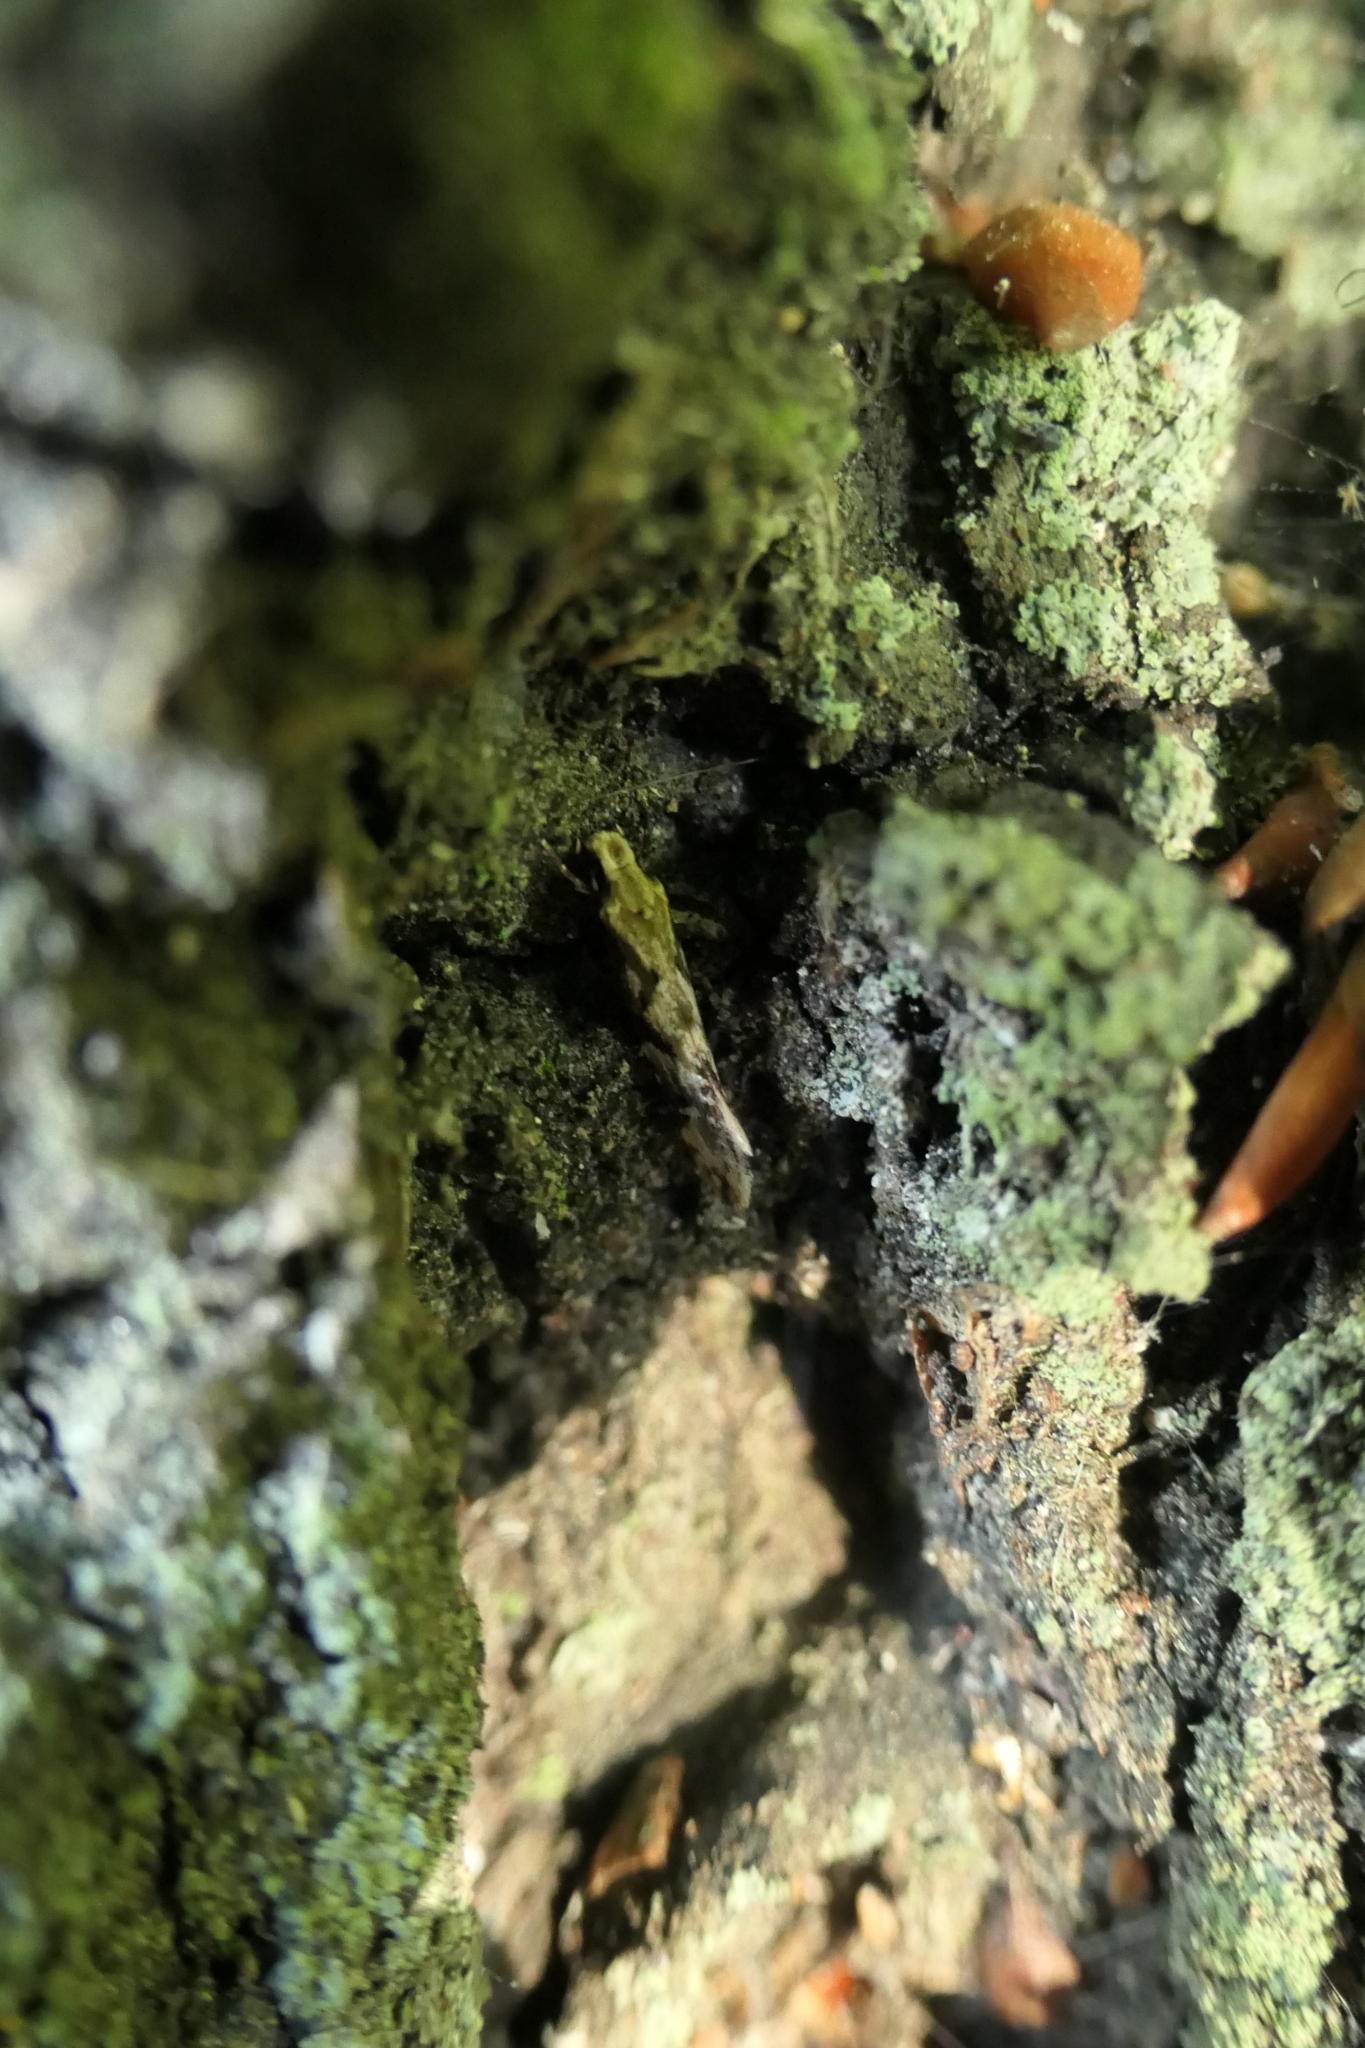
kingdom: Animalia
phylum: Arthropoda
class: Insecta
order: Lepidoptera
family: Tineidae
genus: Crypsitricha
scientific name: Crypsitricha mesotypa
